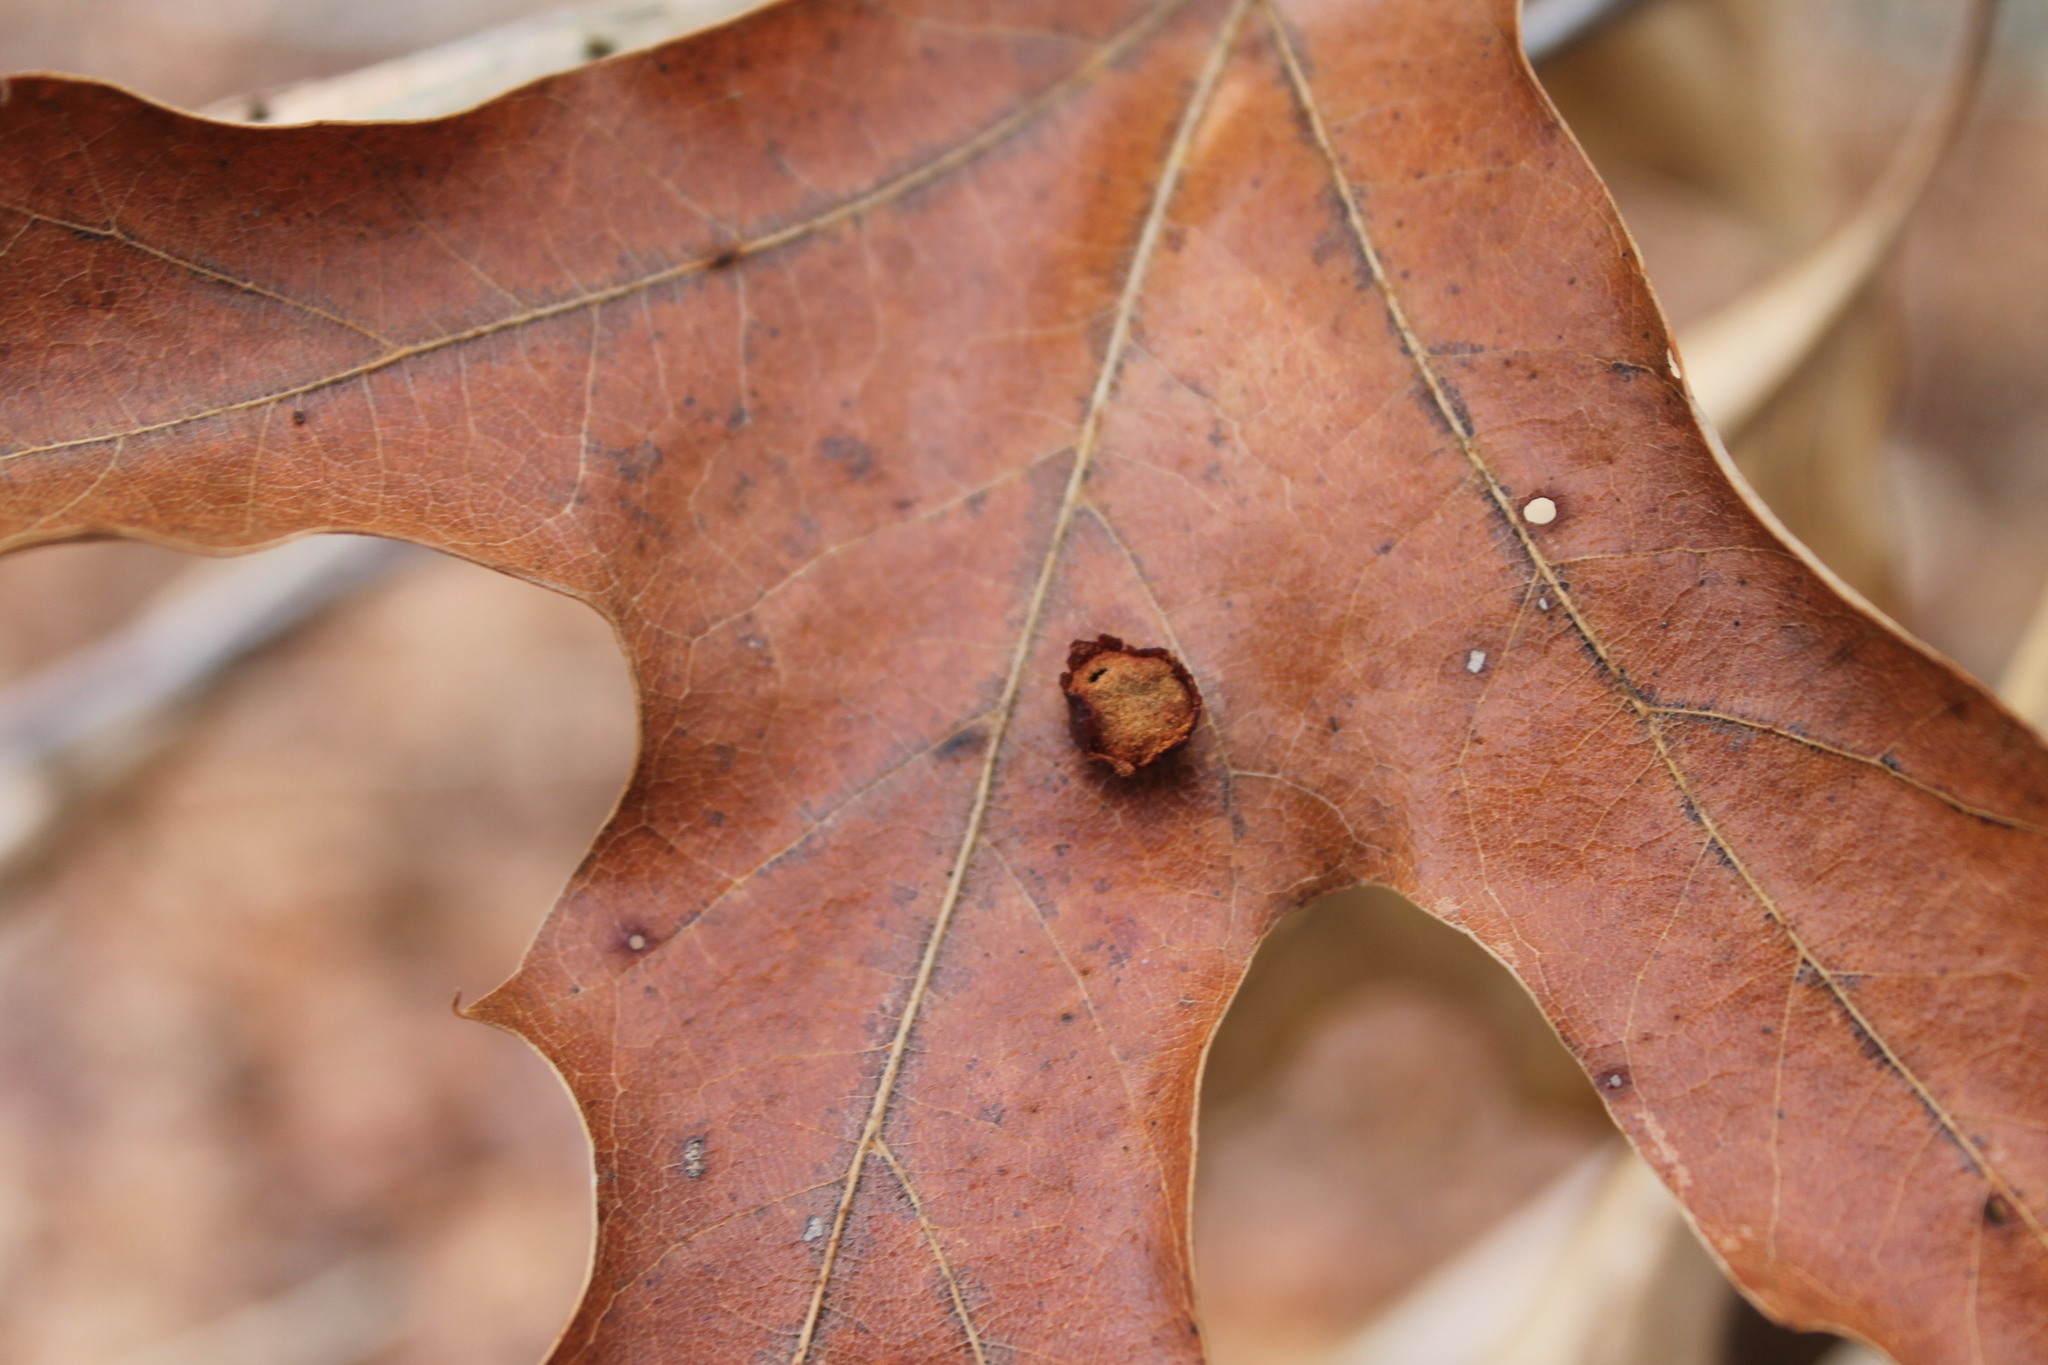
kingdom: Animalia
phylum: Arthropoda
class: Insecta
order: Diptera
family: Cecidomyiidae
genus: Polystepha
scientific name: Polystepha pilulae
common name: Oak leaf gall midge
